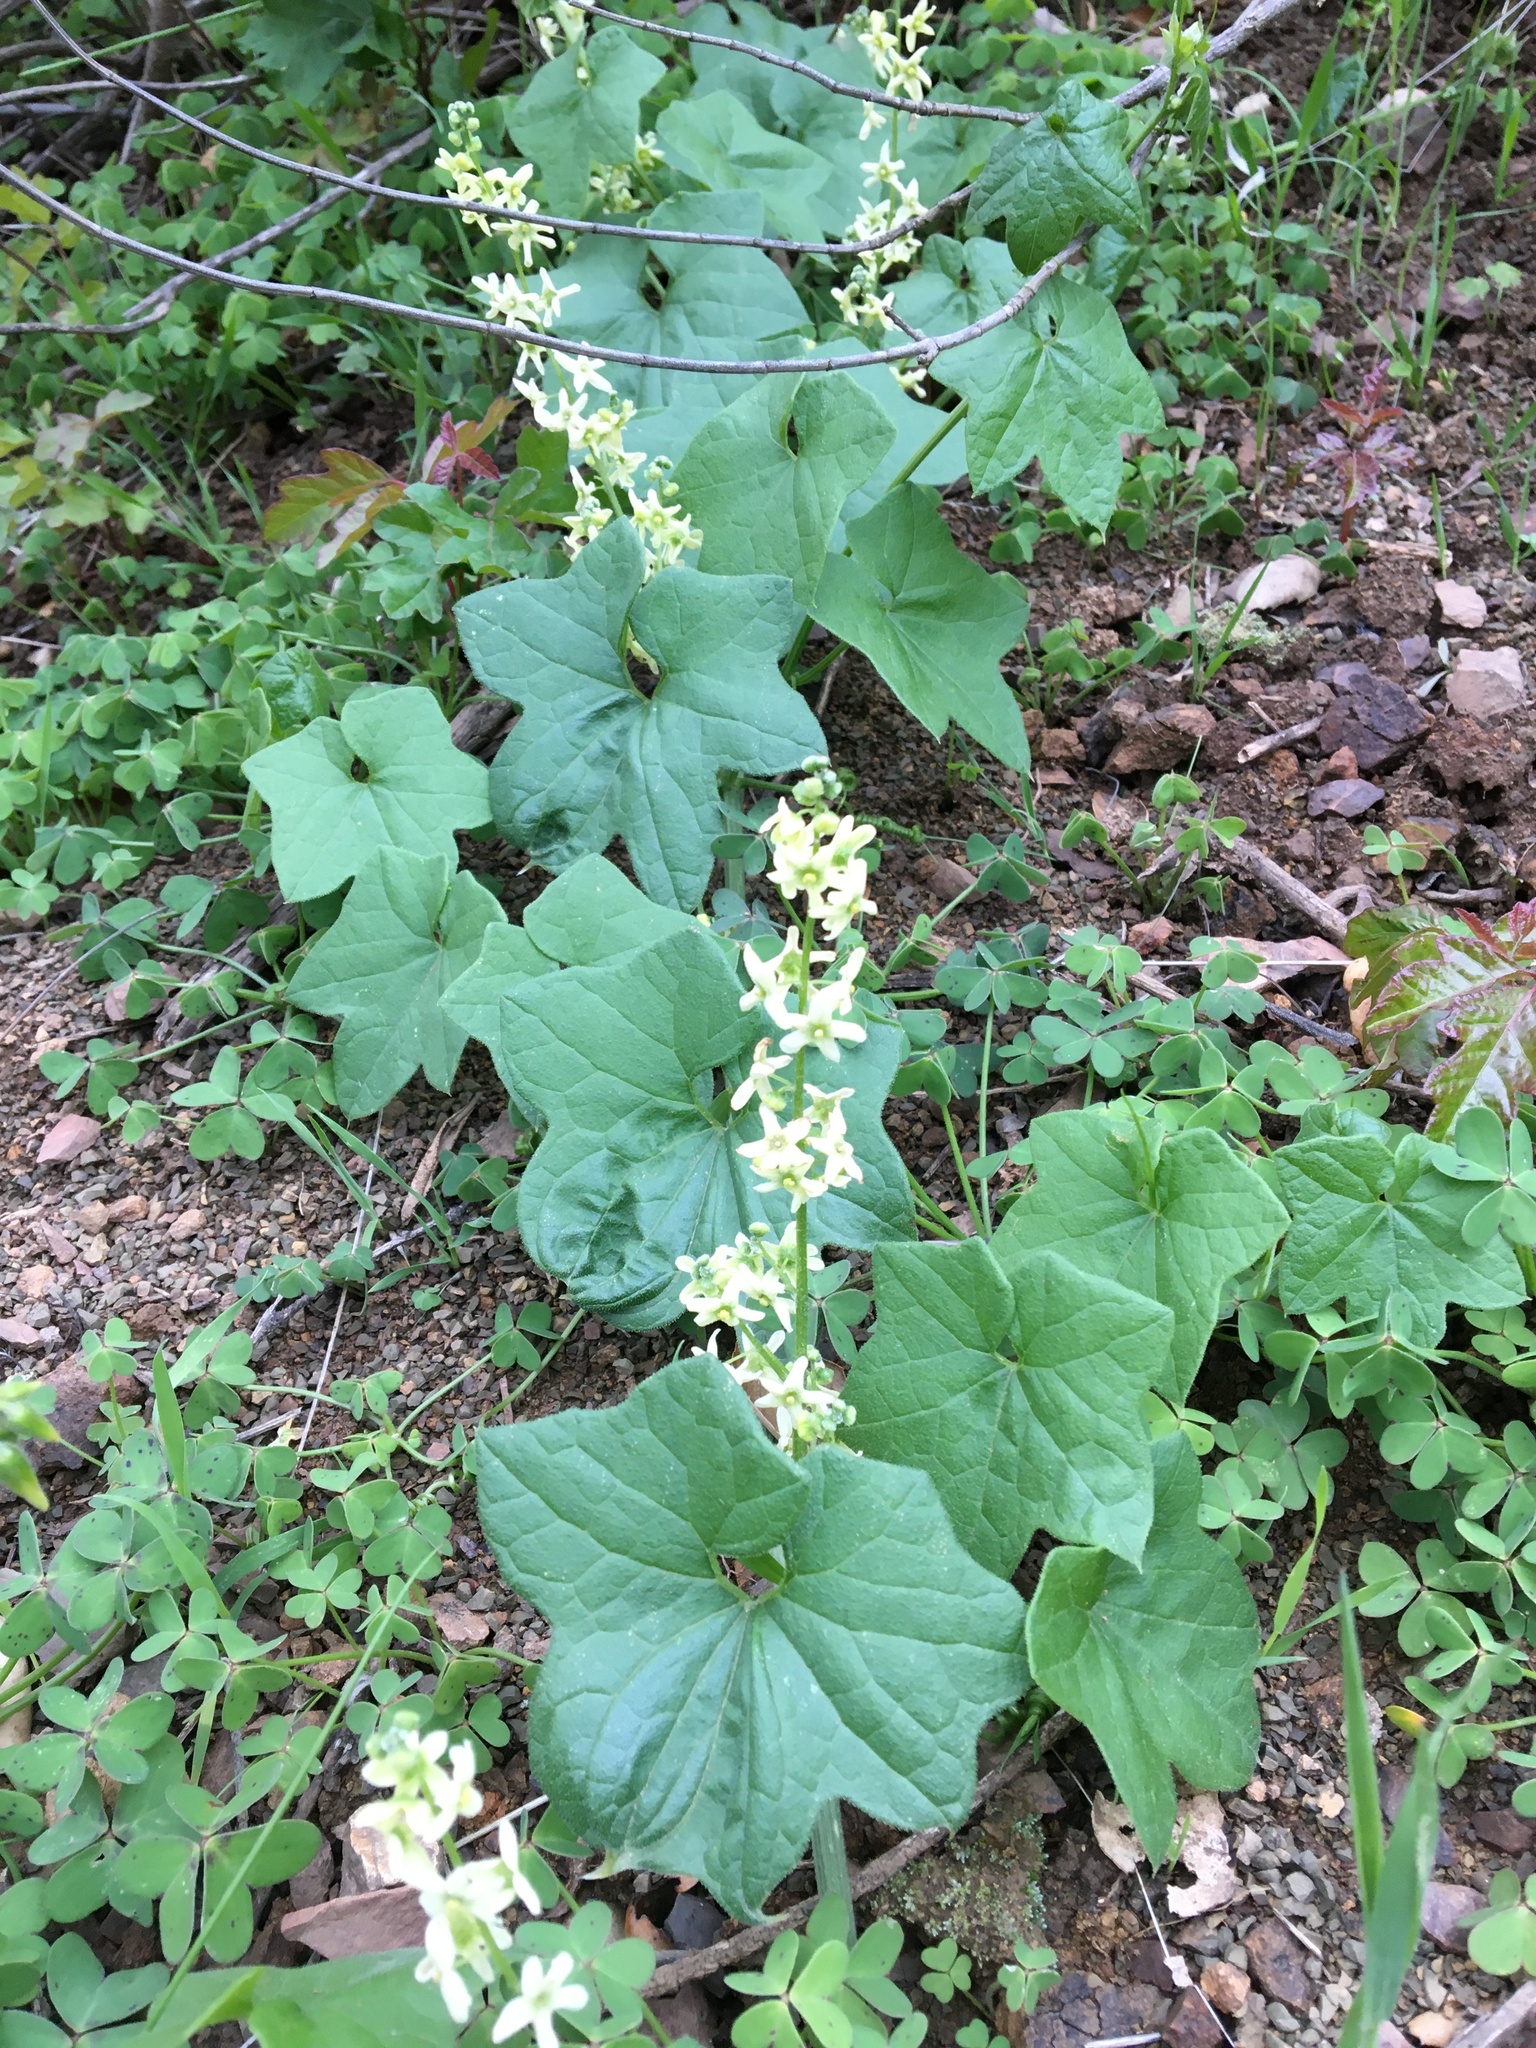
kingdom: Plantae
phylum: Tracheophyta
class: Magnoliopsida
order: Cucurbitales
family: Cucurbitaceae
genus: Marah
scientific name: Marah fabacea
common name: California manroot
